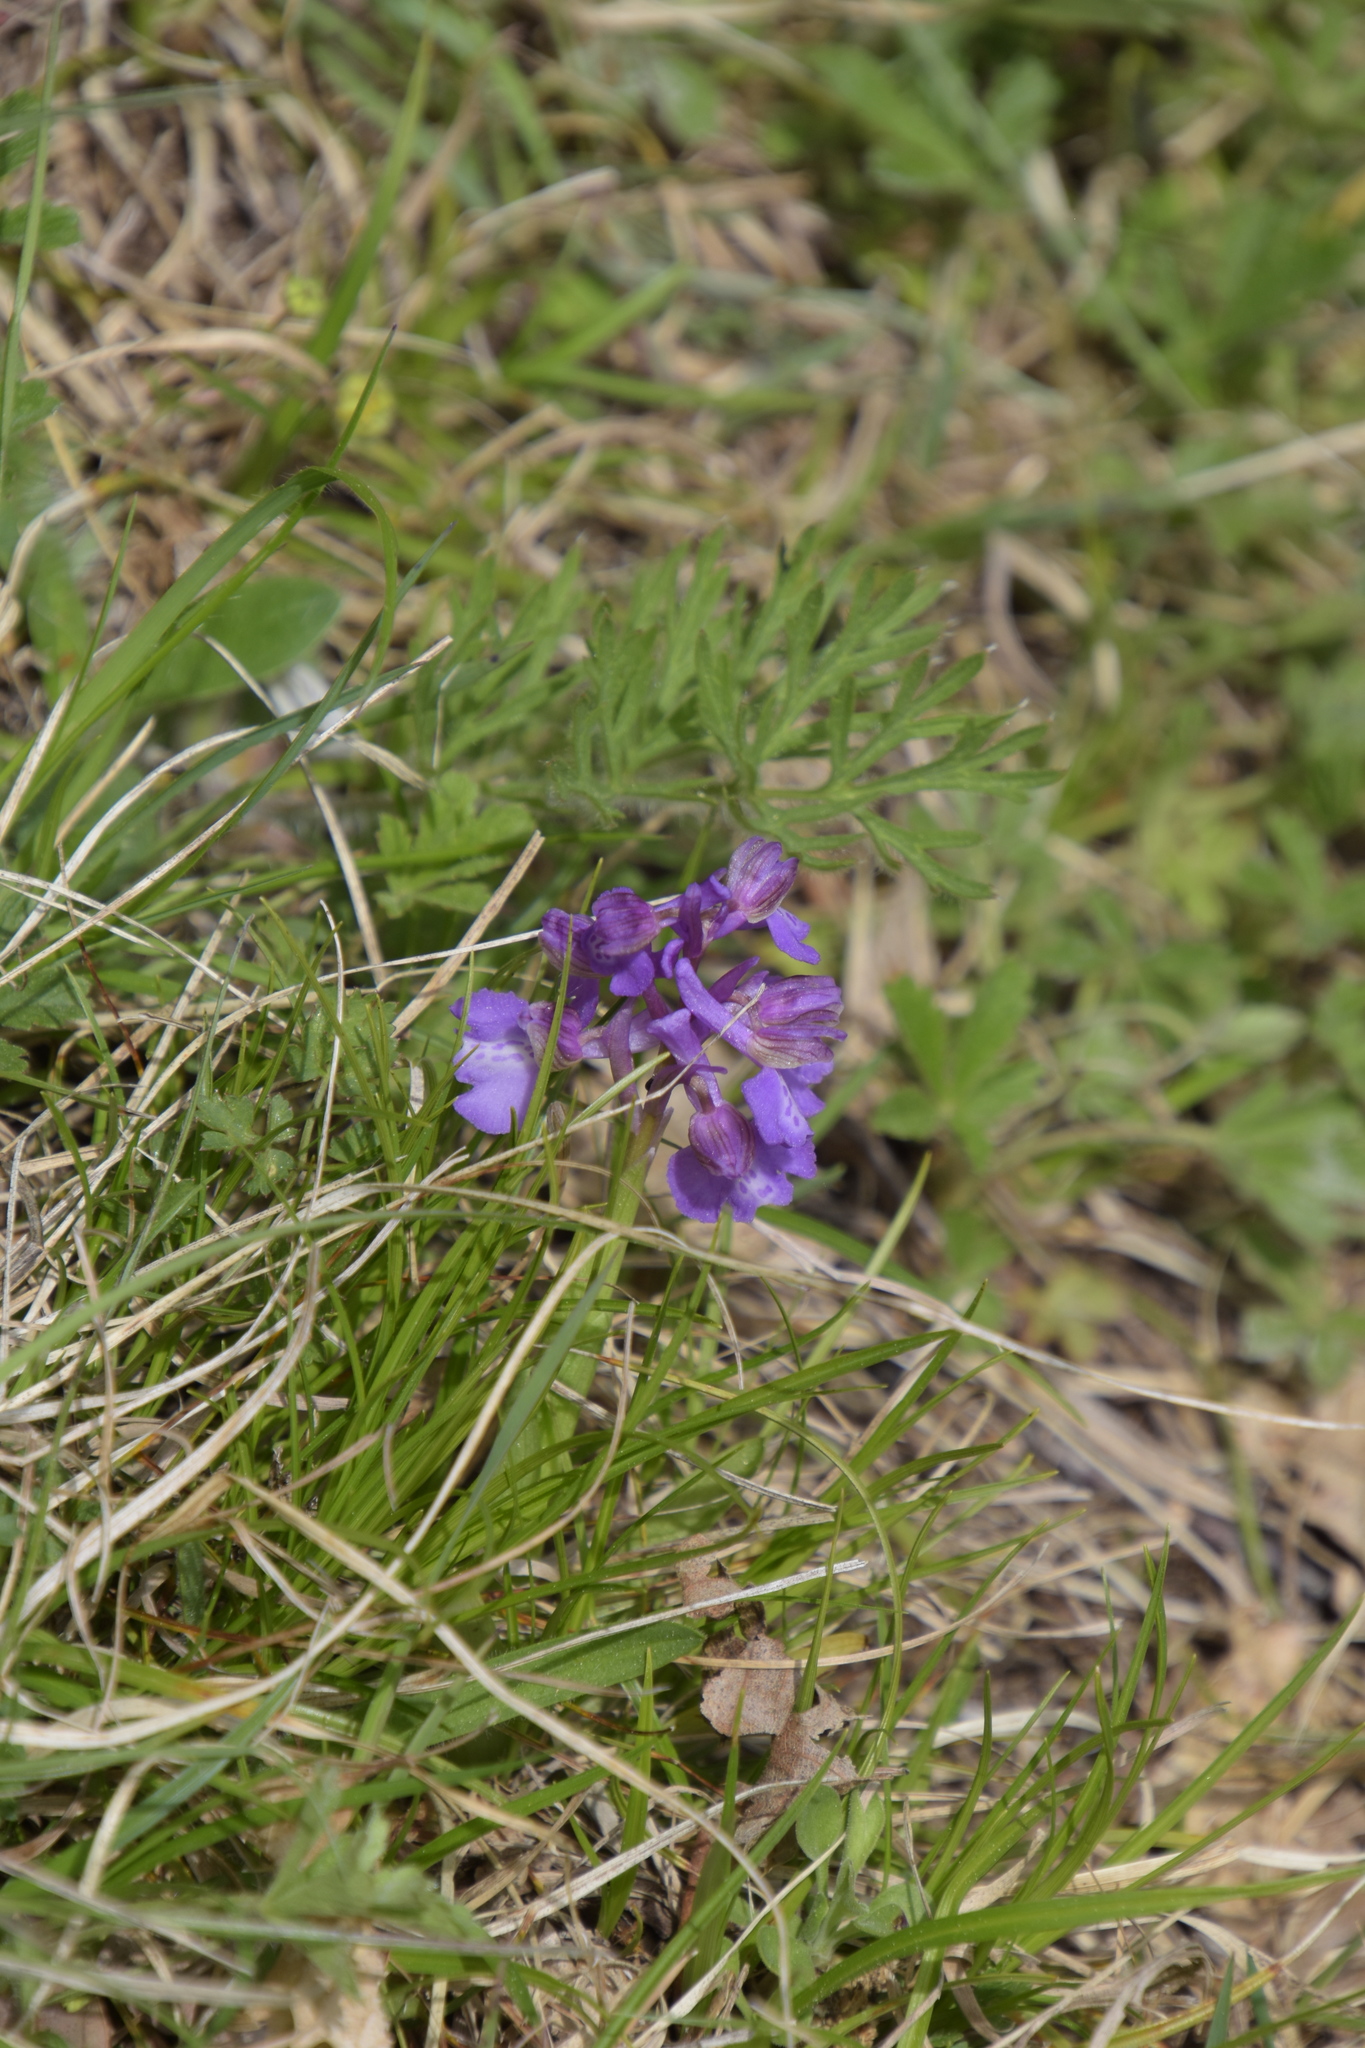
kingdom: Plantae
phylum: Tracheophyta
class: Liliopsida
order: Asparagales
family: Orchidaceae
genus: Anacamptis
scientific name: Anacamptis morio
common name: Green-winged orchid
